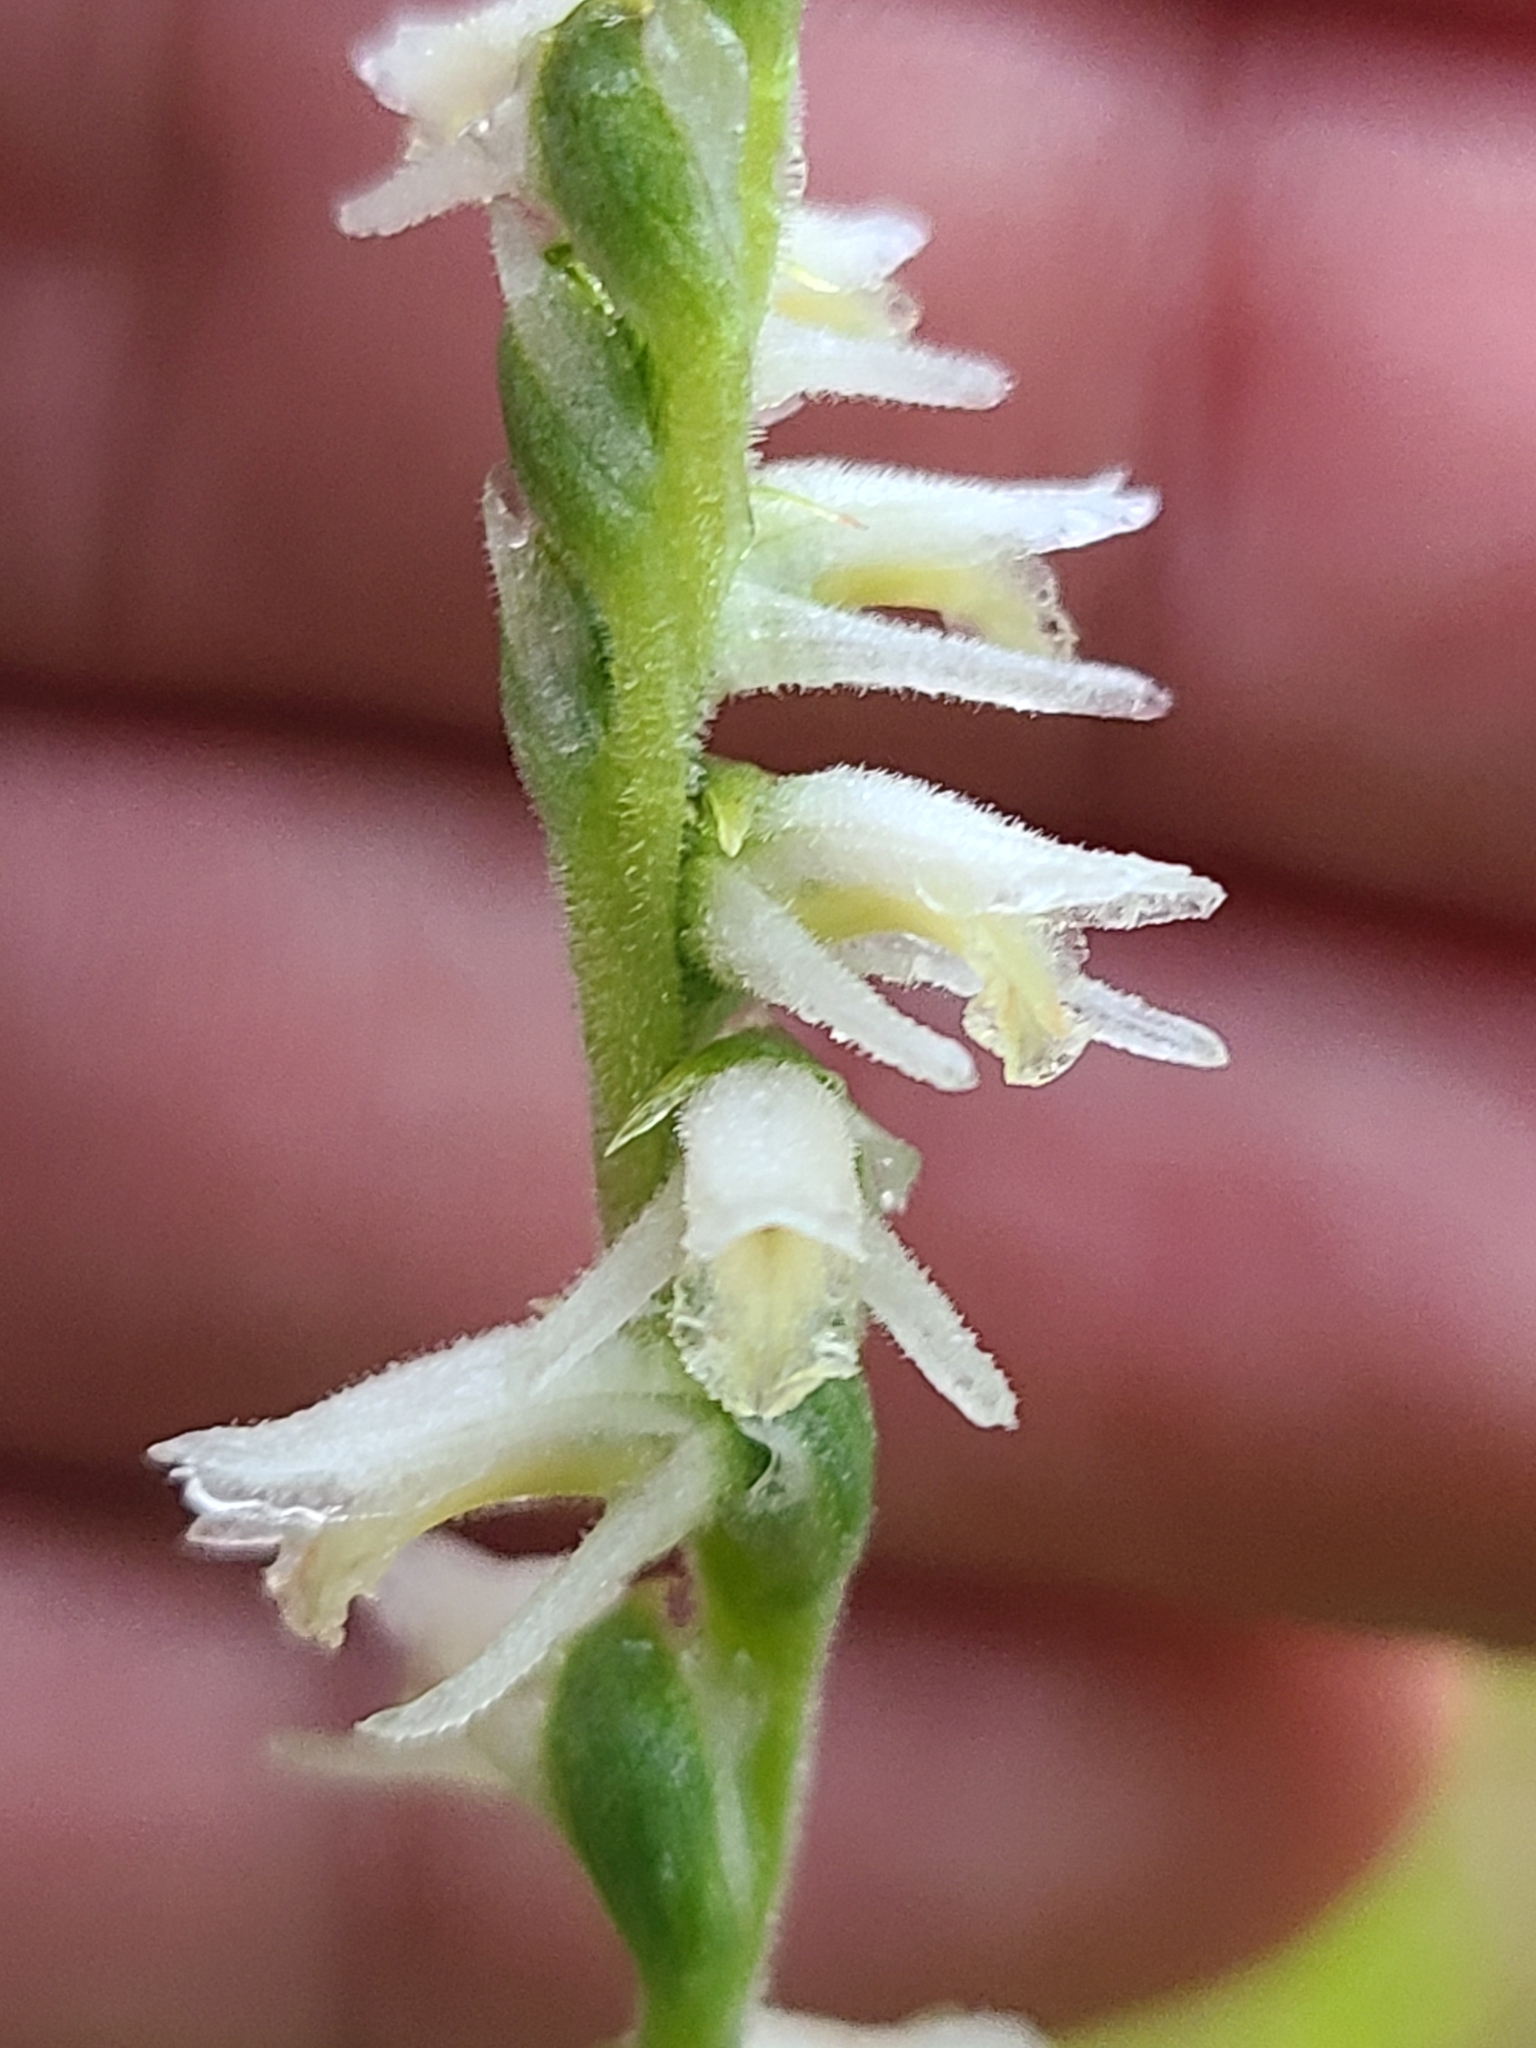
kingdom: Plantae
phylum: Tracheophyta
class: Liliopsida
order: Asparagales
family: Orchidaceae
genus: Spiranthes
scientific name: Spiranthes vernalis
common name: Spring ladies'-tresses
